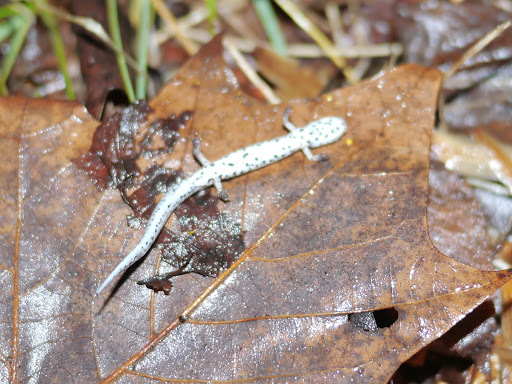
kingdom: Animalia
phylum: Chordata
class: Amphibia
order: Caudata
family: Plethodontidae
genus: Hemidactylium
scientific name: Hemidactylium scutatum
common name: Four-toed salamander
